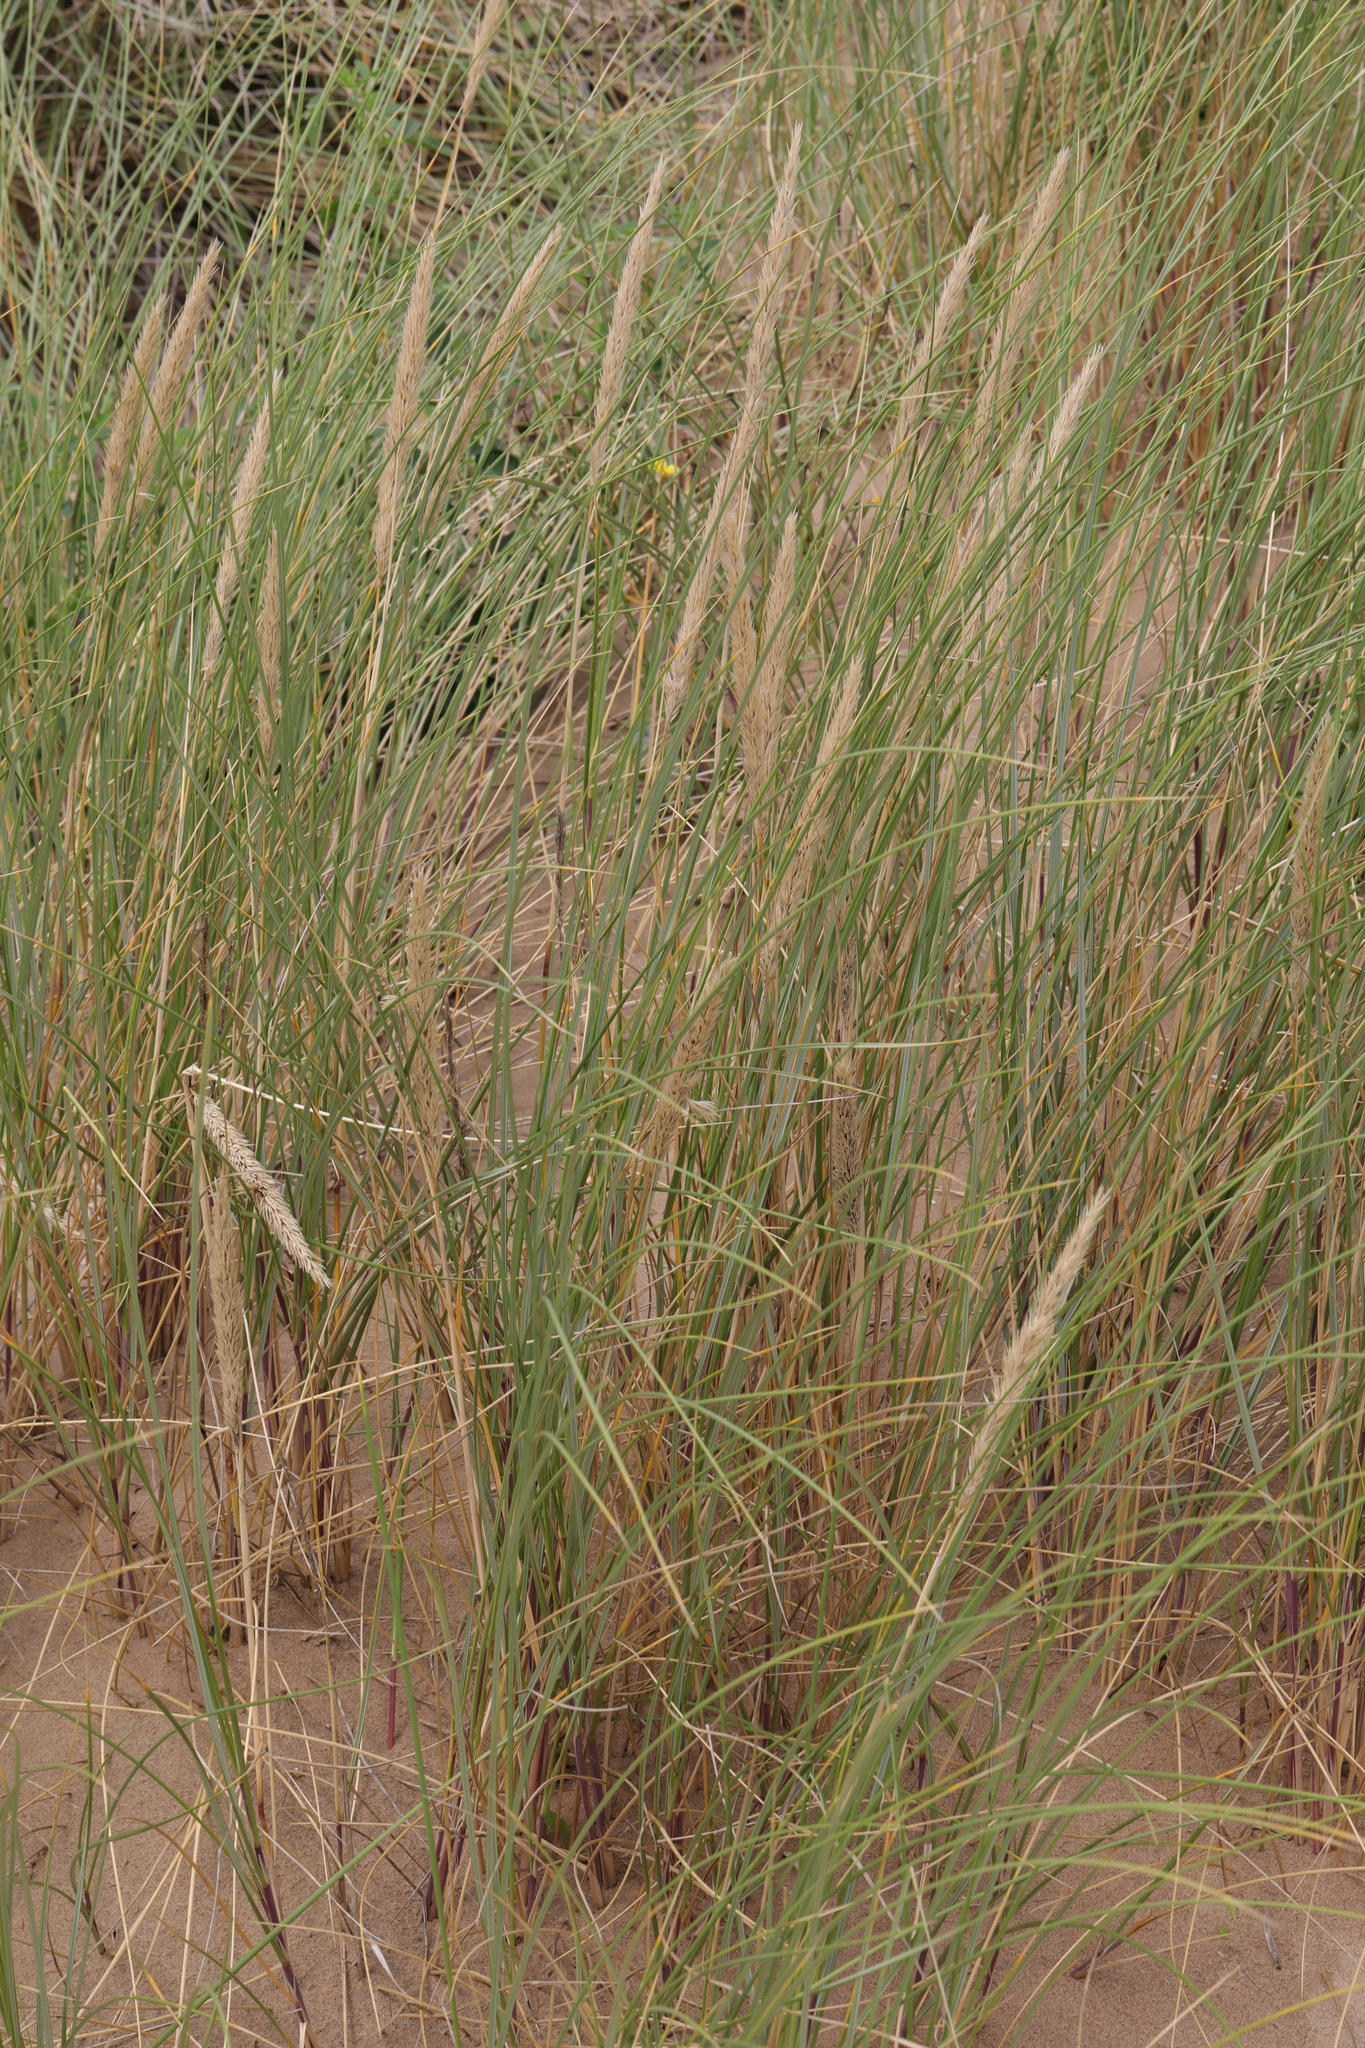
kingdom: Plantae
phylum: Tracheophyta
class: Liliopsida
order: Poales
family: Poaceae
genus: Calamagrostis
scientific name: Calamagrostis arenaria
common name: European beachgrass
